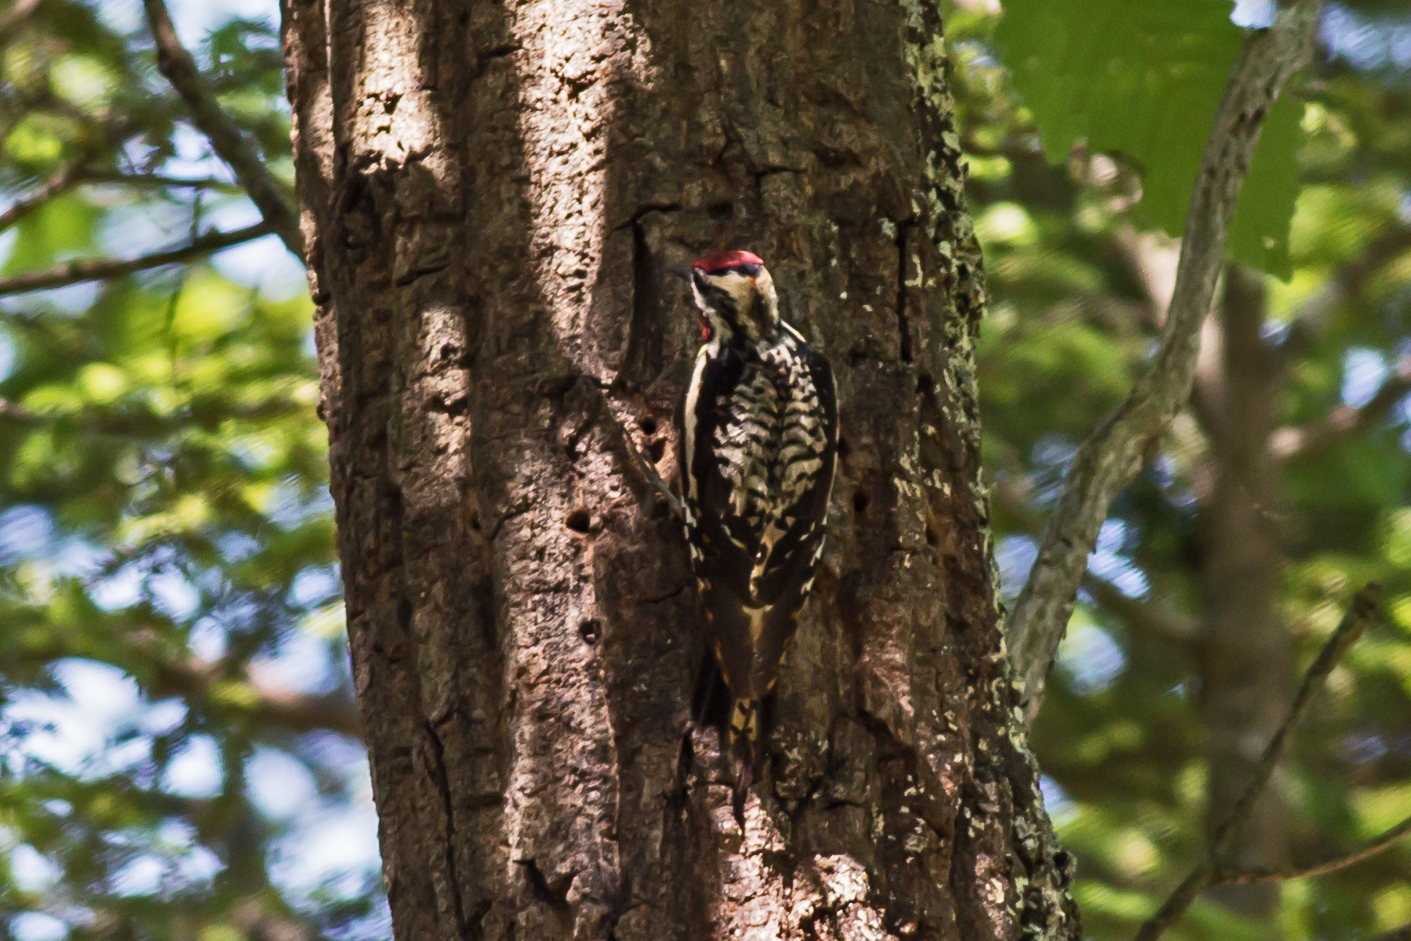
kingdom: Animalia
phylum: Chordata
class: Aves
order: Piciformes
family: Picidae
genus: Sphyrapicus
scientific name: Sphyrapicus varius
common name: Yellow-bellied sapsucker
